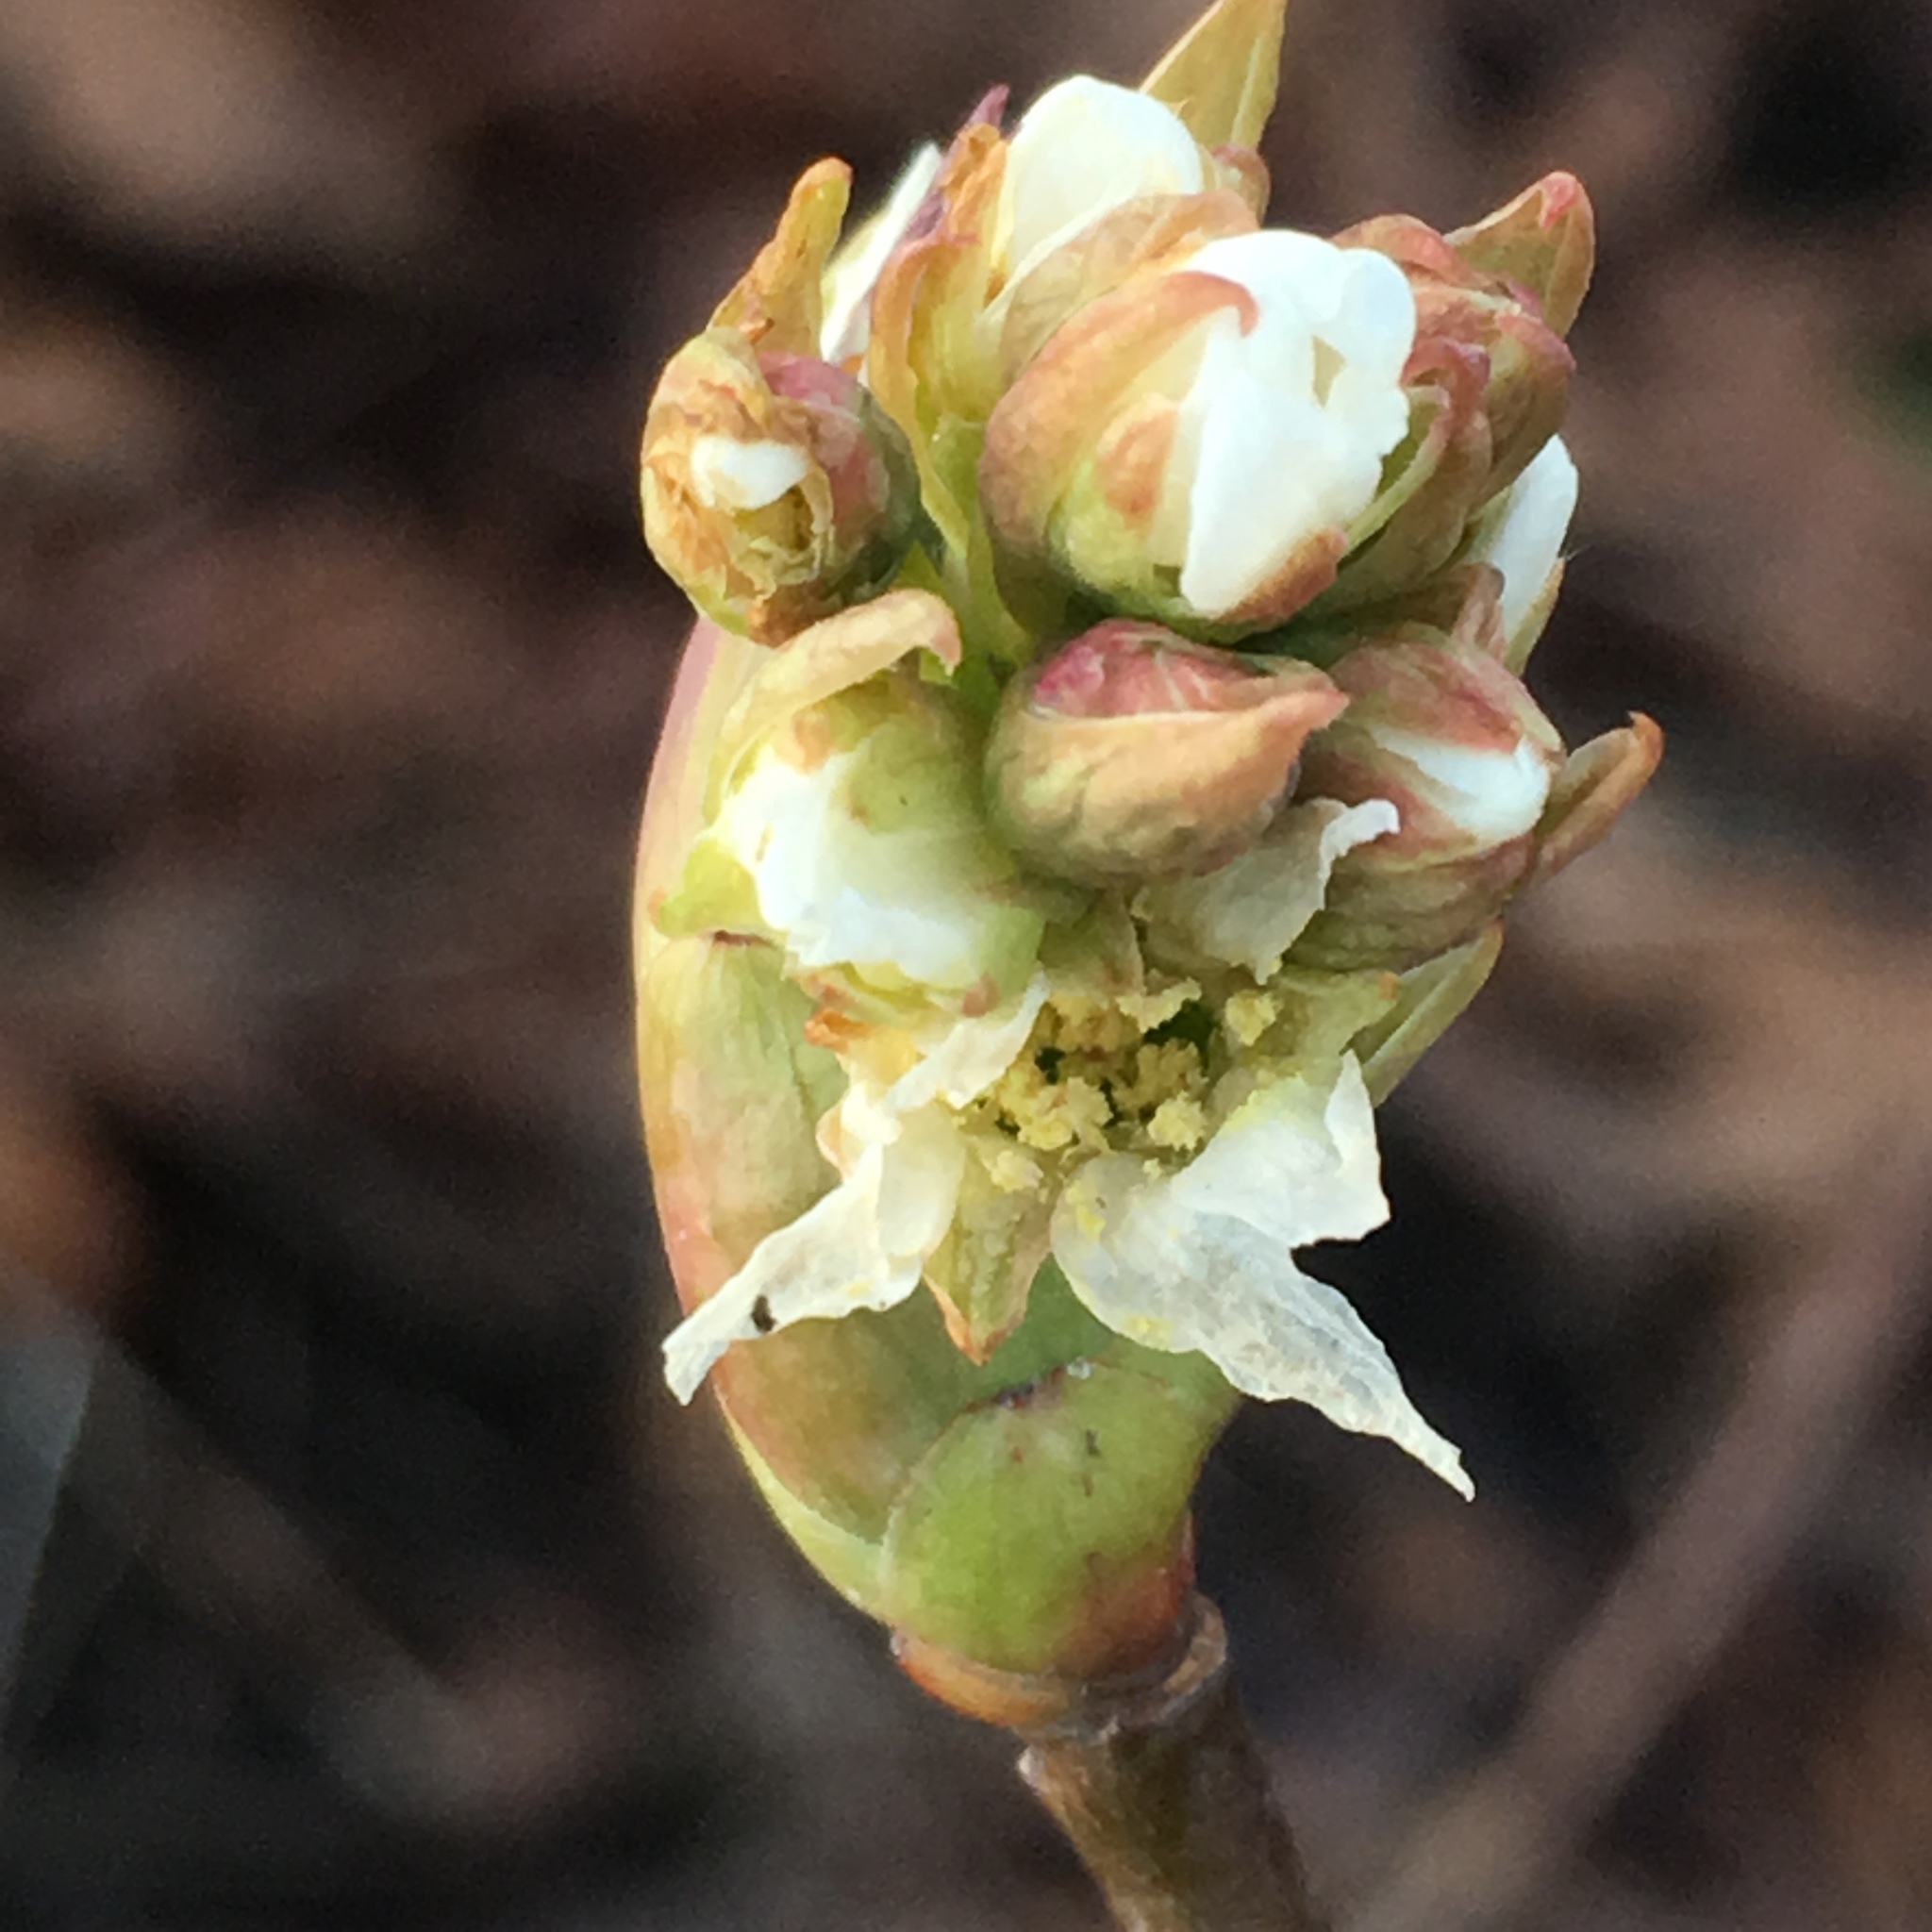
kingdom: Plantae
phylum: Tracheophyta
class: Magnoliopsida
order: Rosales
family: Rosaceae
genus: Oemleria
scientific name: Oemleria cerasiformis
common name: Osoberry
